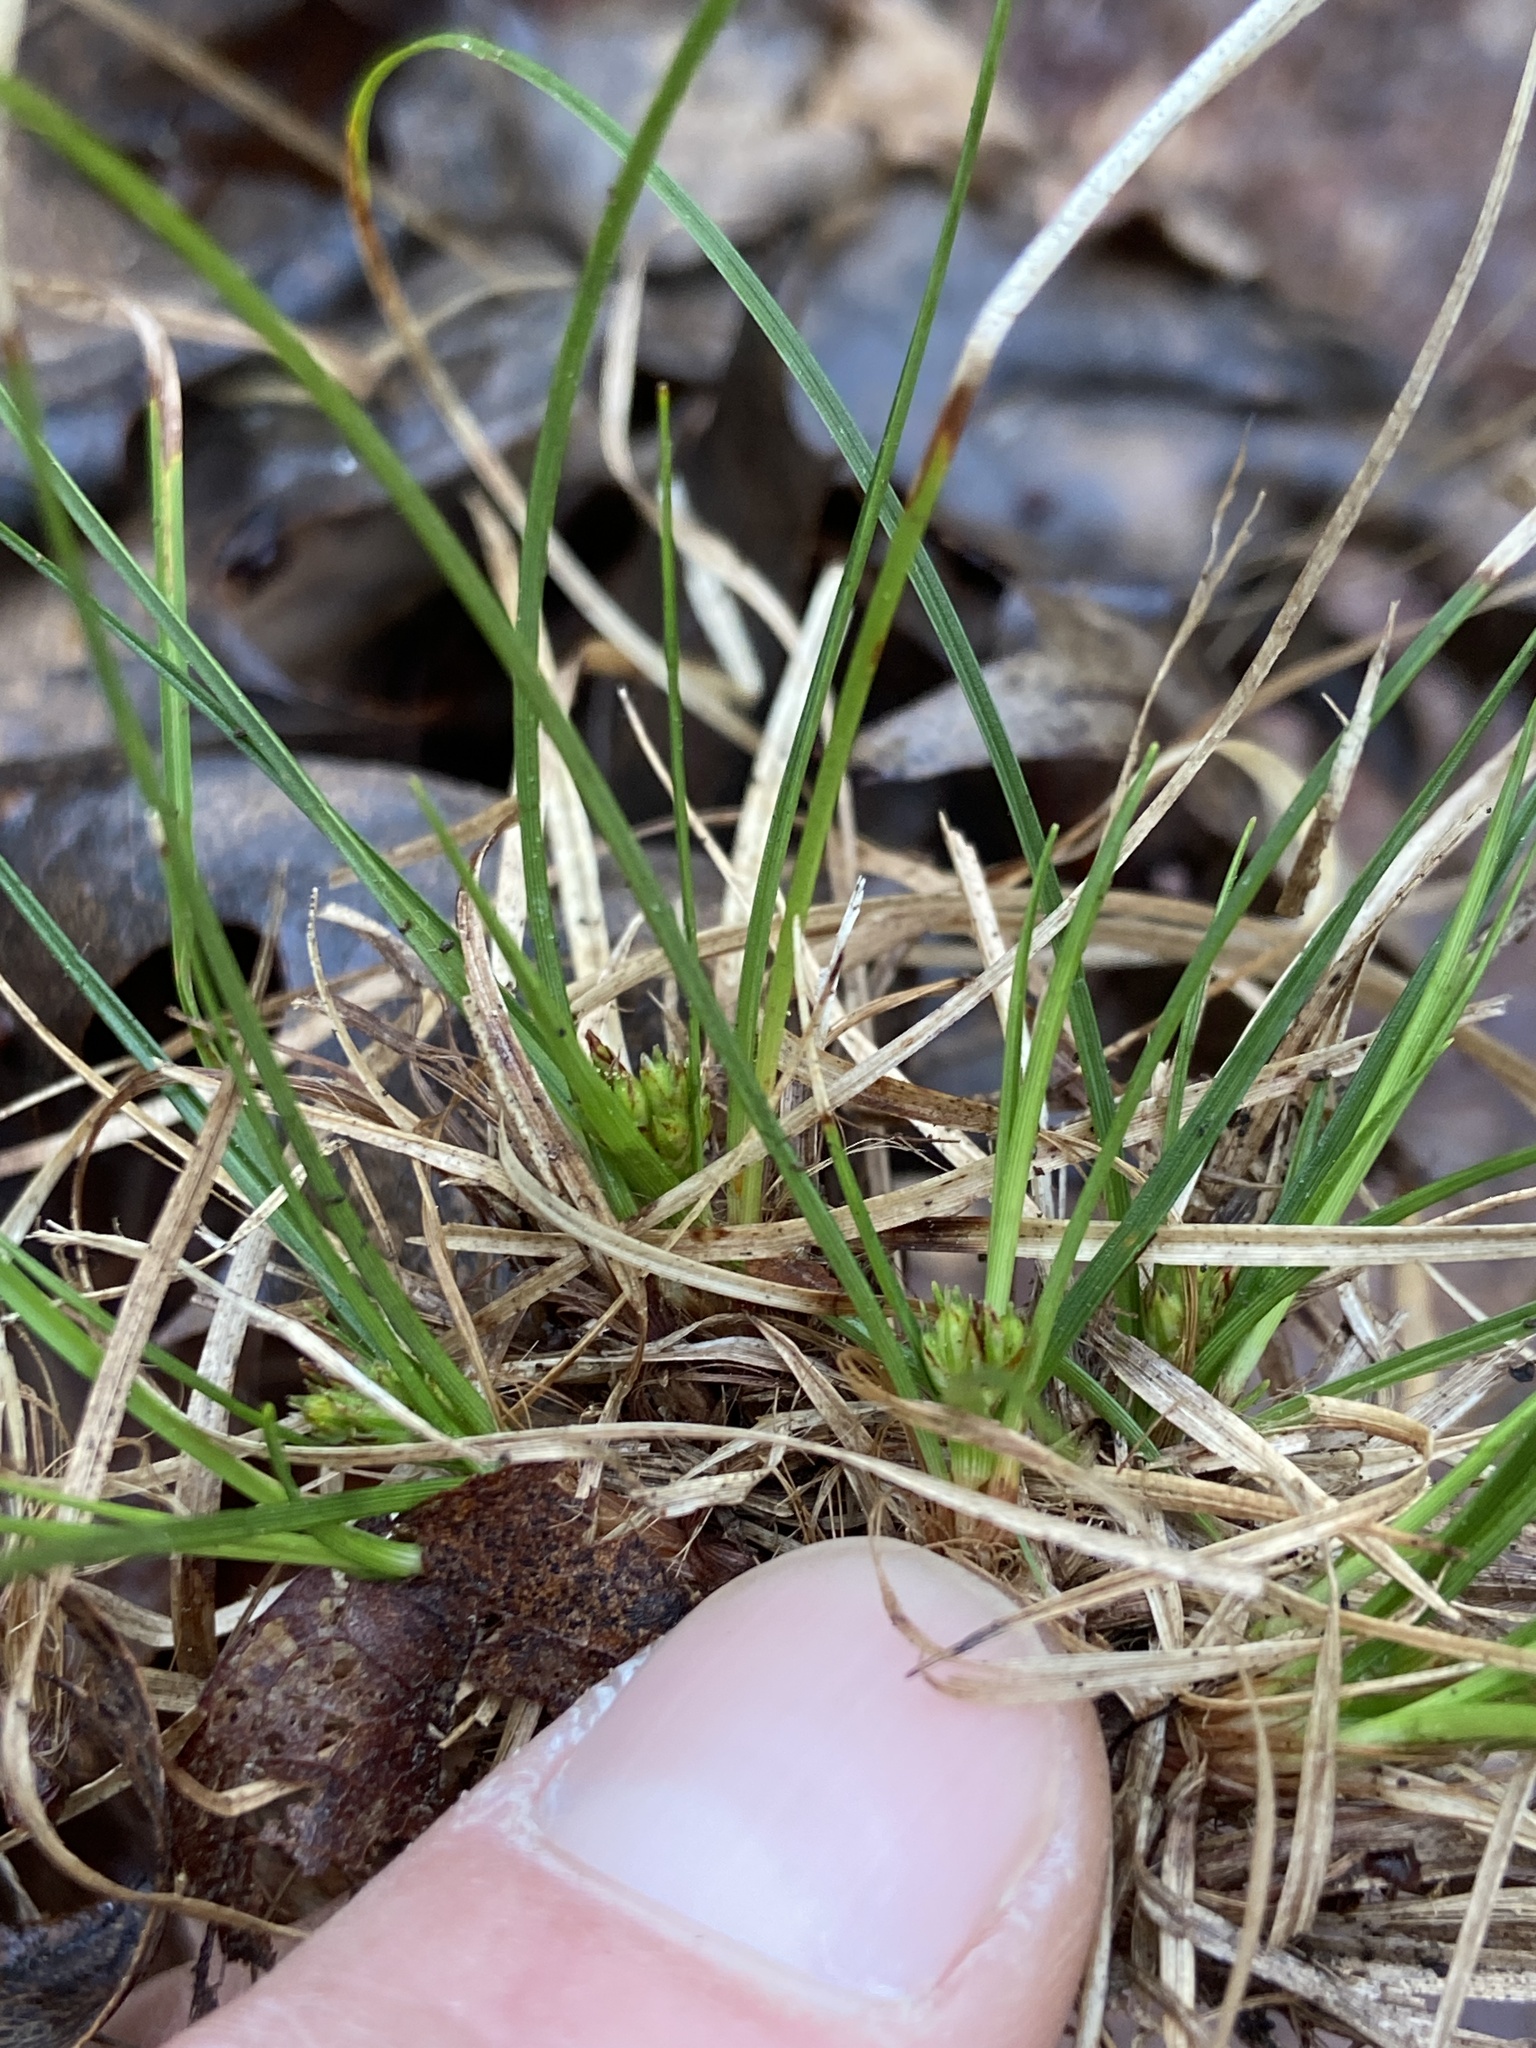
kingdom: Plantae
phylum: Tracheophyta
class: Liliopsida
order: Poales
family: Cyperaceae
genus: Carex
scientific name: Carex reznicekii
